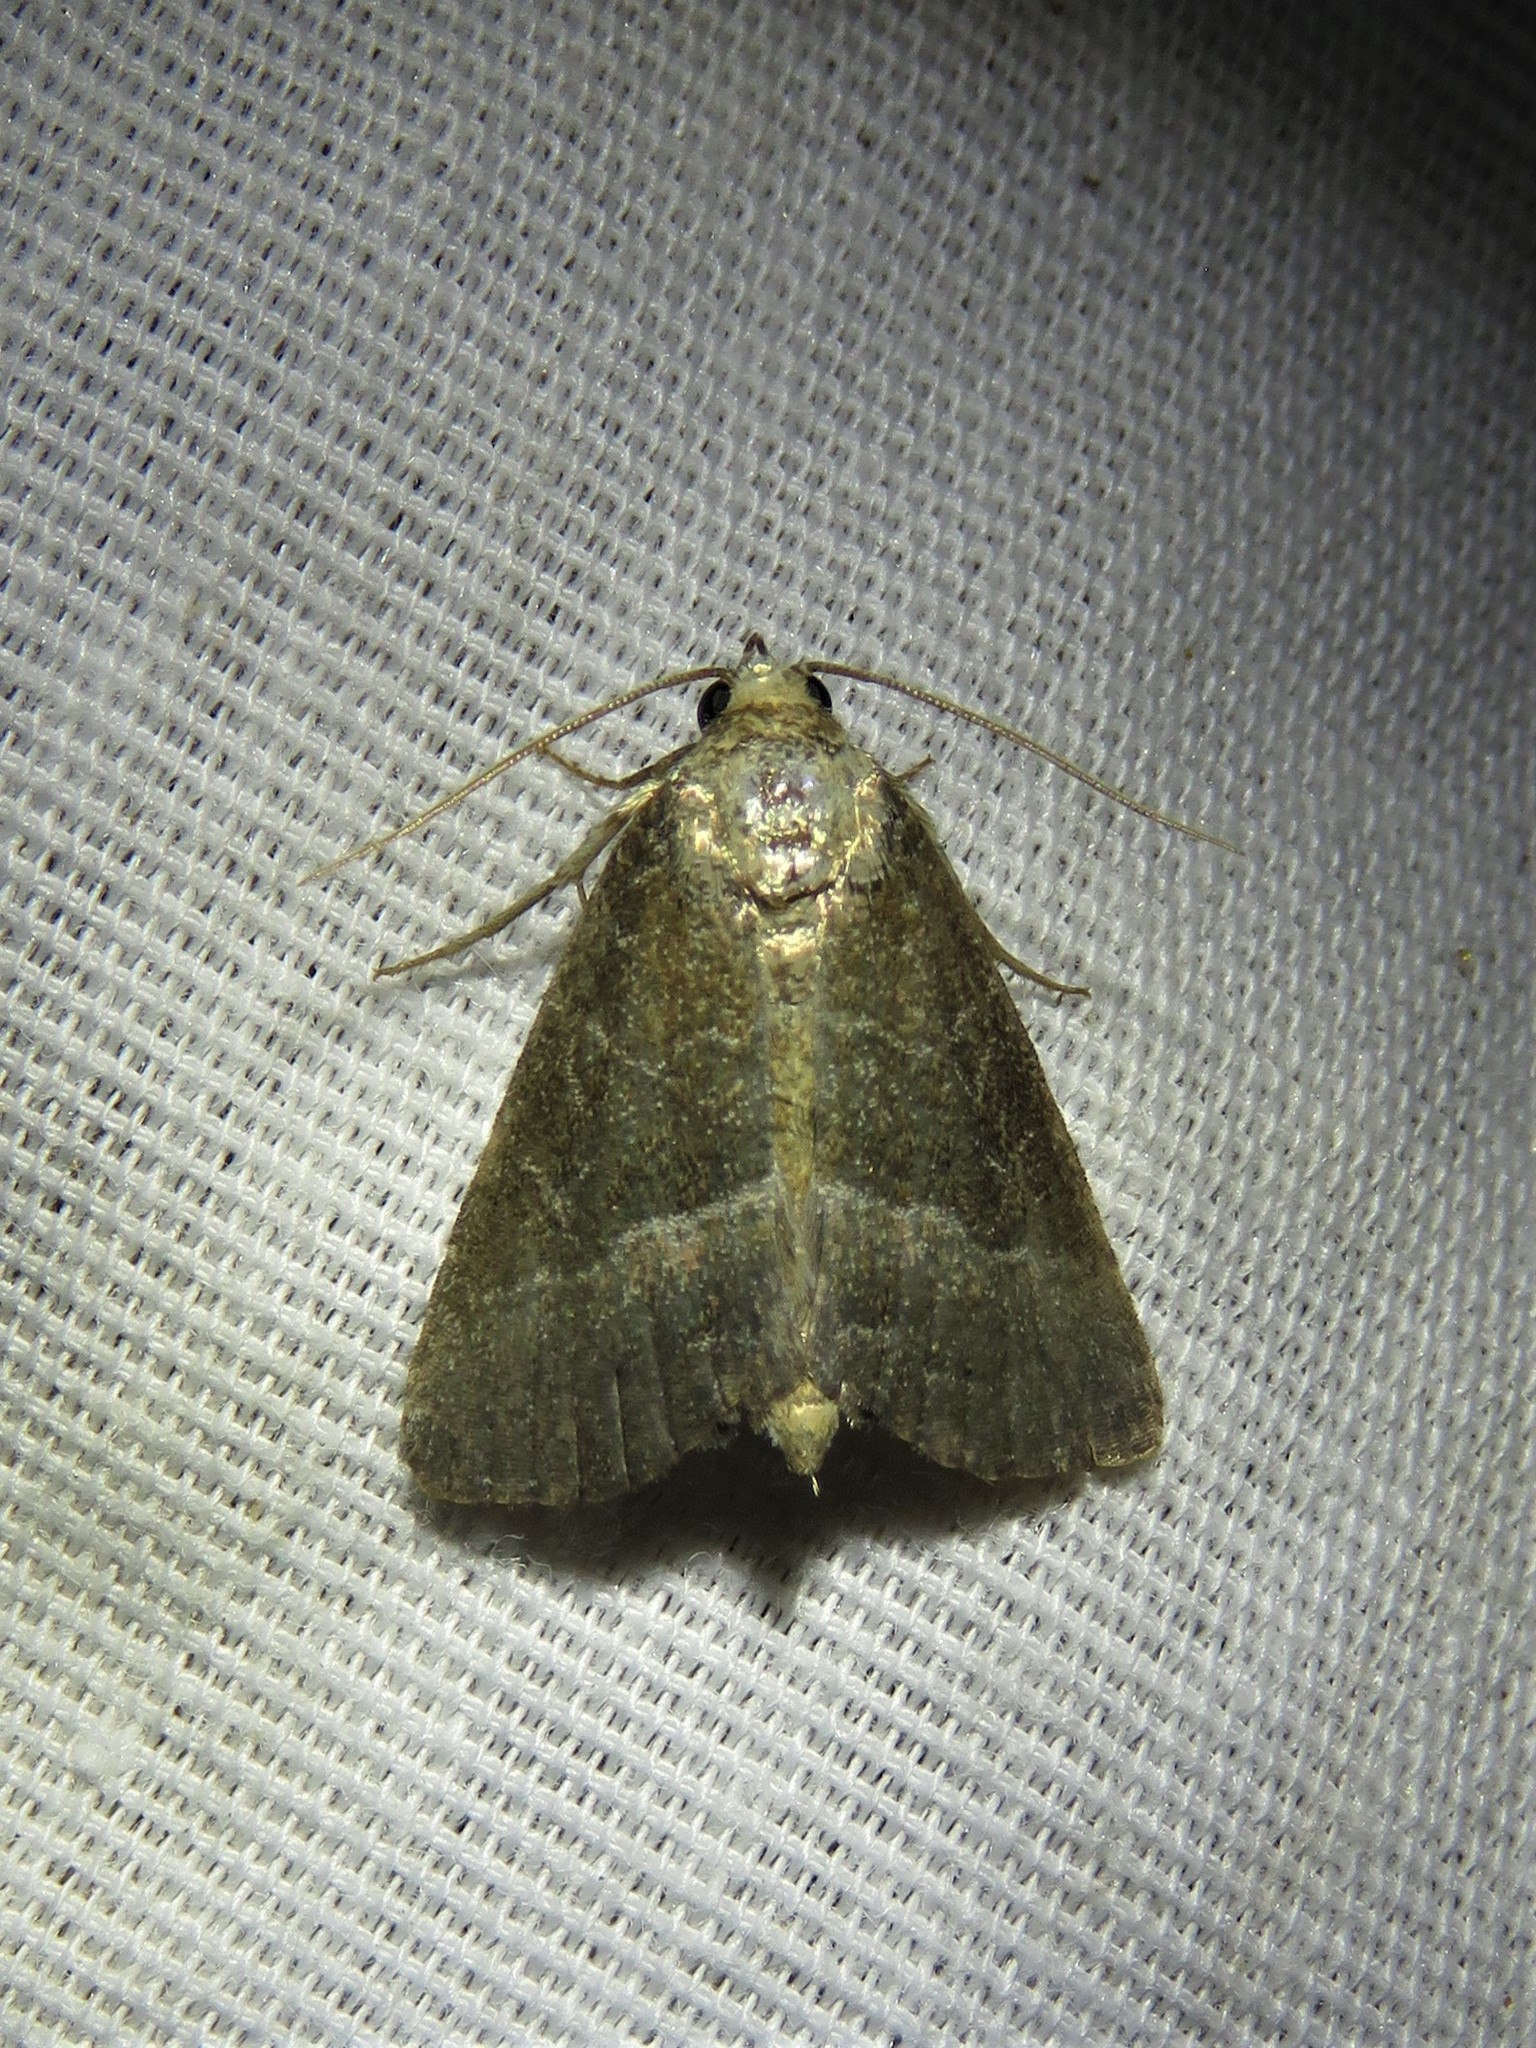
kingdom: Animalia
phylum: Arthropoda
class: Insecta
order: Lepidoptera
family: Noctuidae
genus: Ogdoconta
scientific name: Ogdoconta cinereola
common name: Common pinkband
